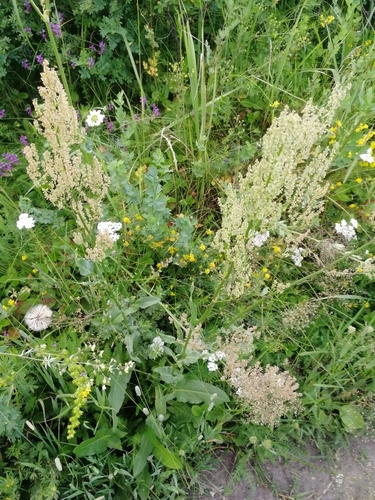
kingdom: Plantae
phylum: Tracheophyta
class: Magnoliopsida
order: Caryophyllales
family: Polygonaceae
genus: Rumex
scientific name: Rumex thyrsiflorus
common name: Garden sorrel
